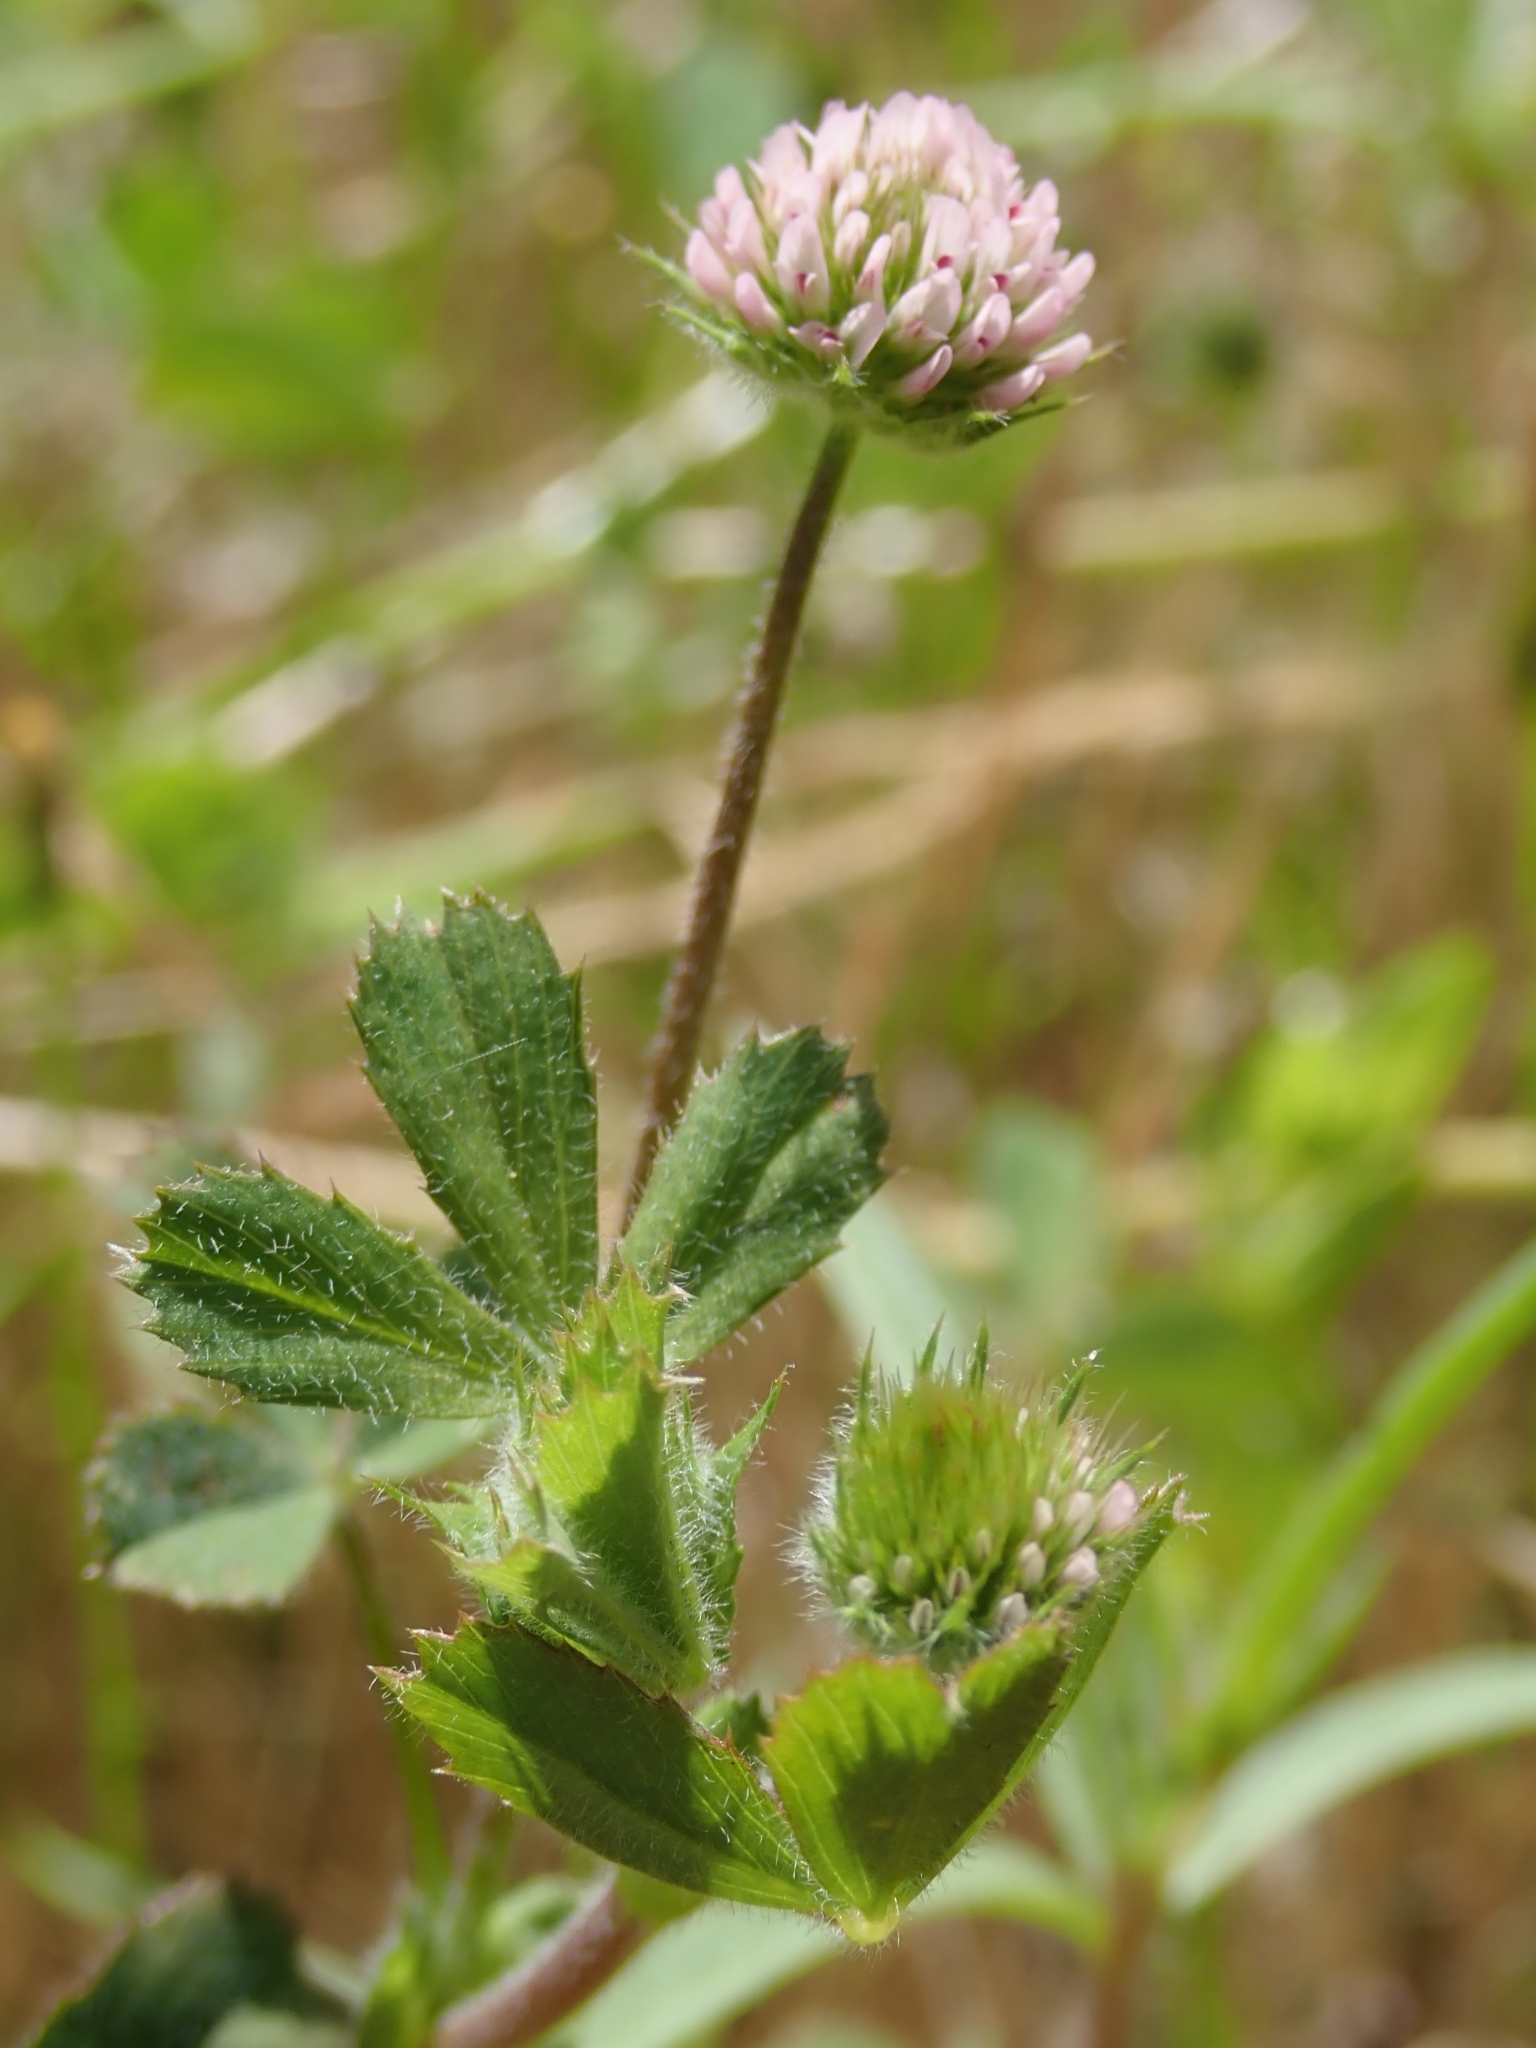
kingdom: Plantae
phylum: Tracheophyta
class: Magnoliopsida
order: Fabales
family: Fabaceae
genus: Trifolium
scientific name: Trifolium microcephalum
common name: Maiden clover
